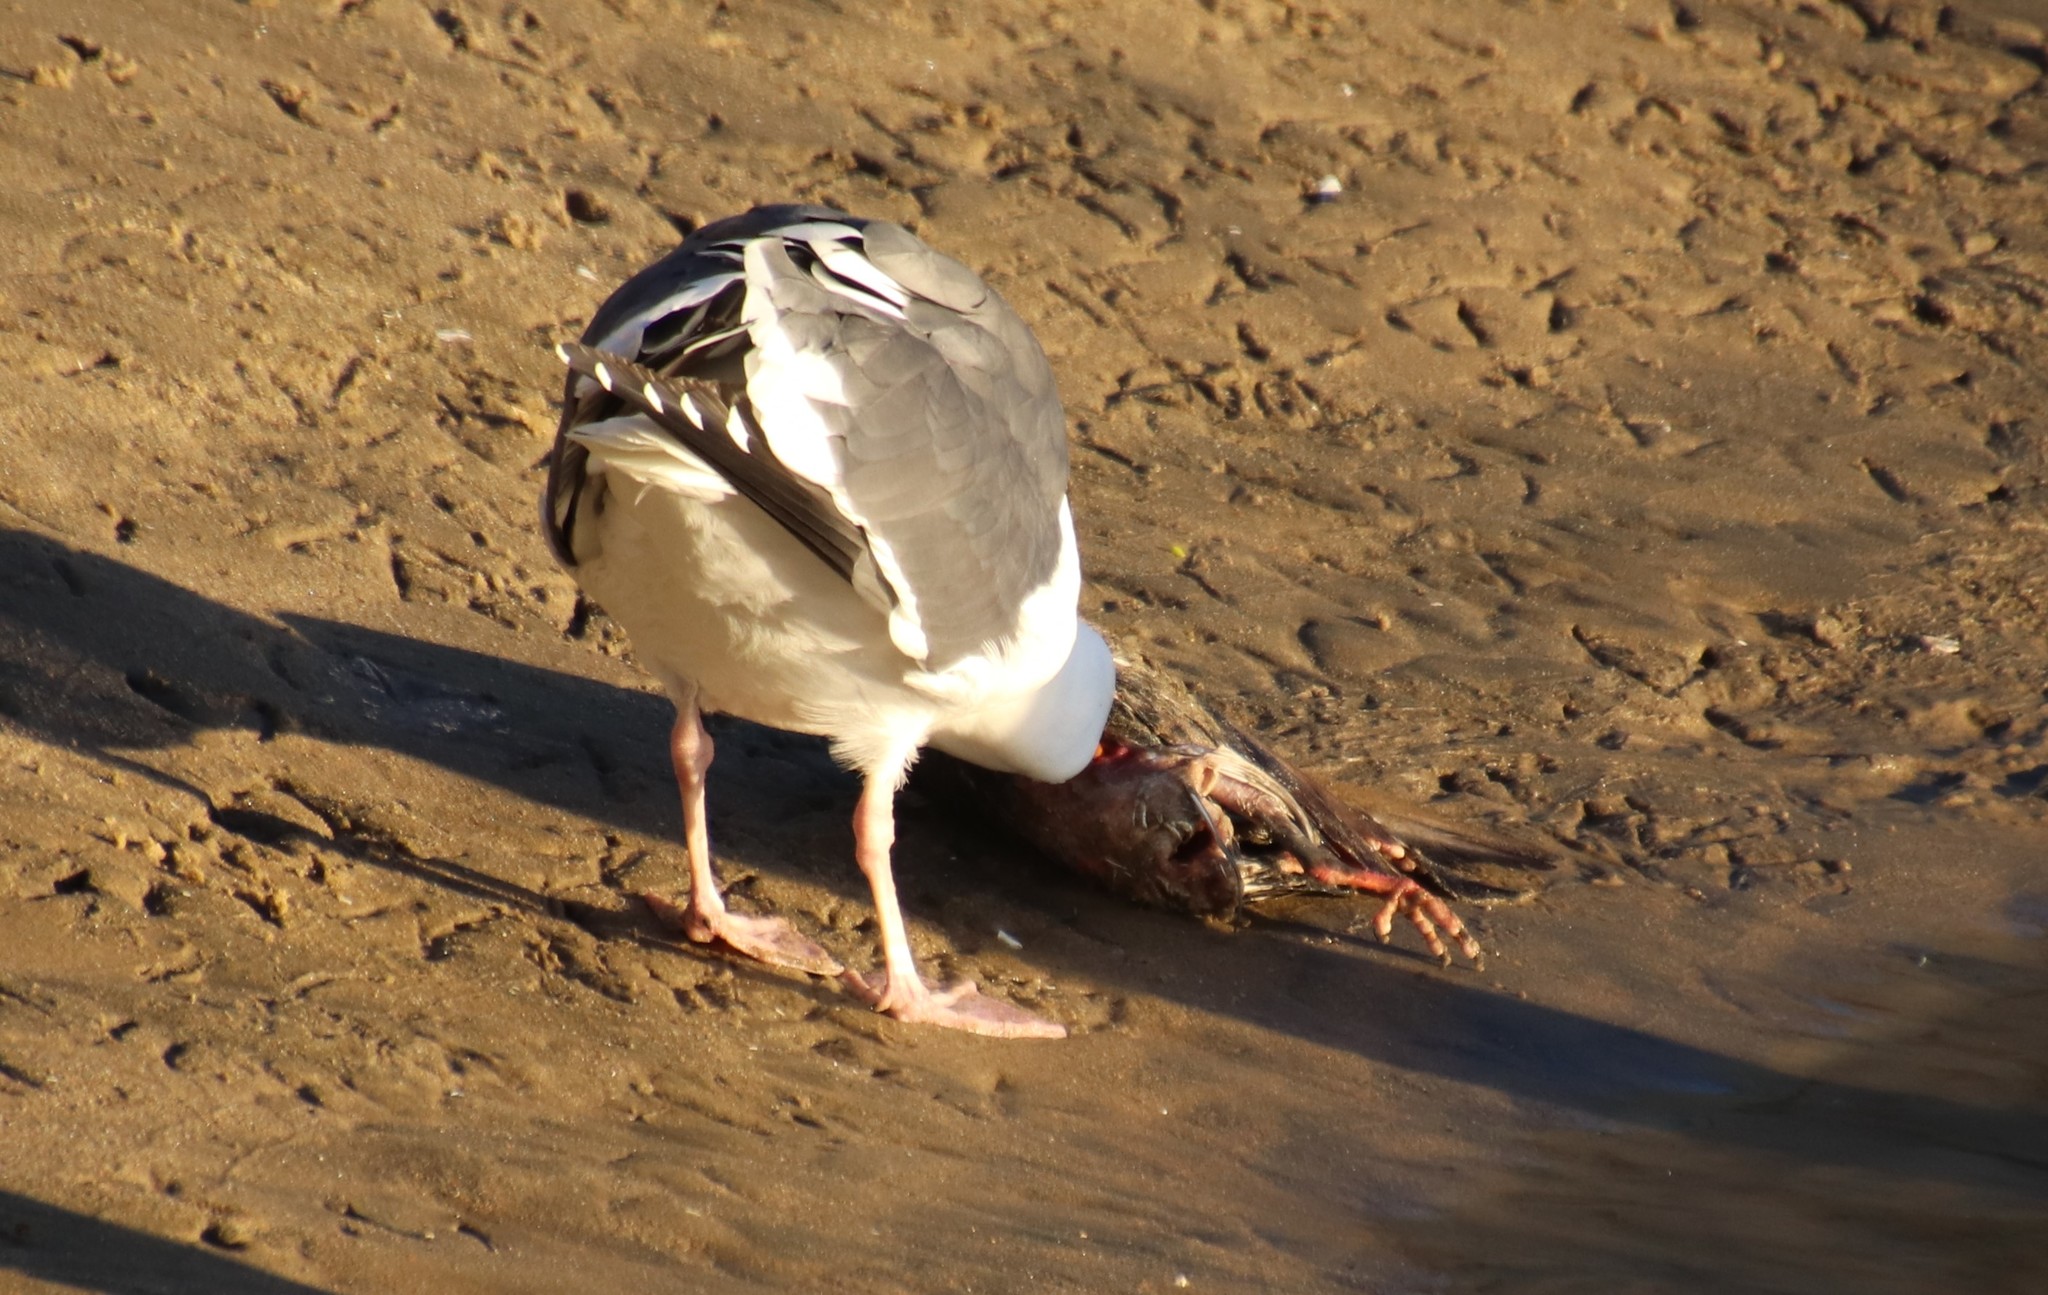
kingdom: Animalia
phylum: Chordata
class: Aves
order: Charadriiformes
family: Laridae
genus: Larus
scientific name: Larus occidentalis
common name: Western gull
